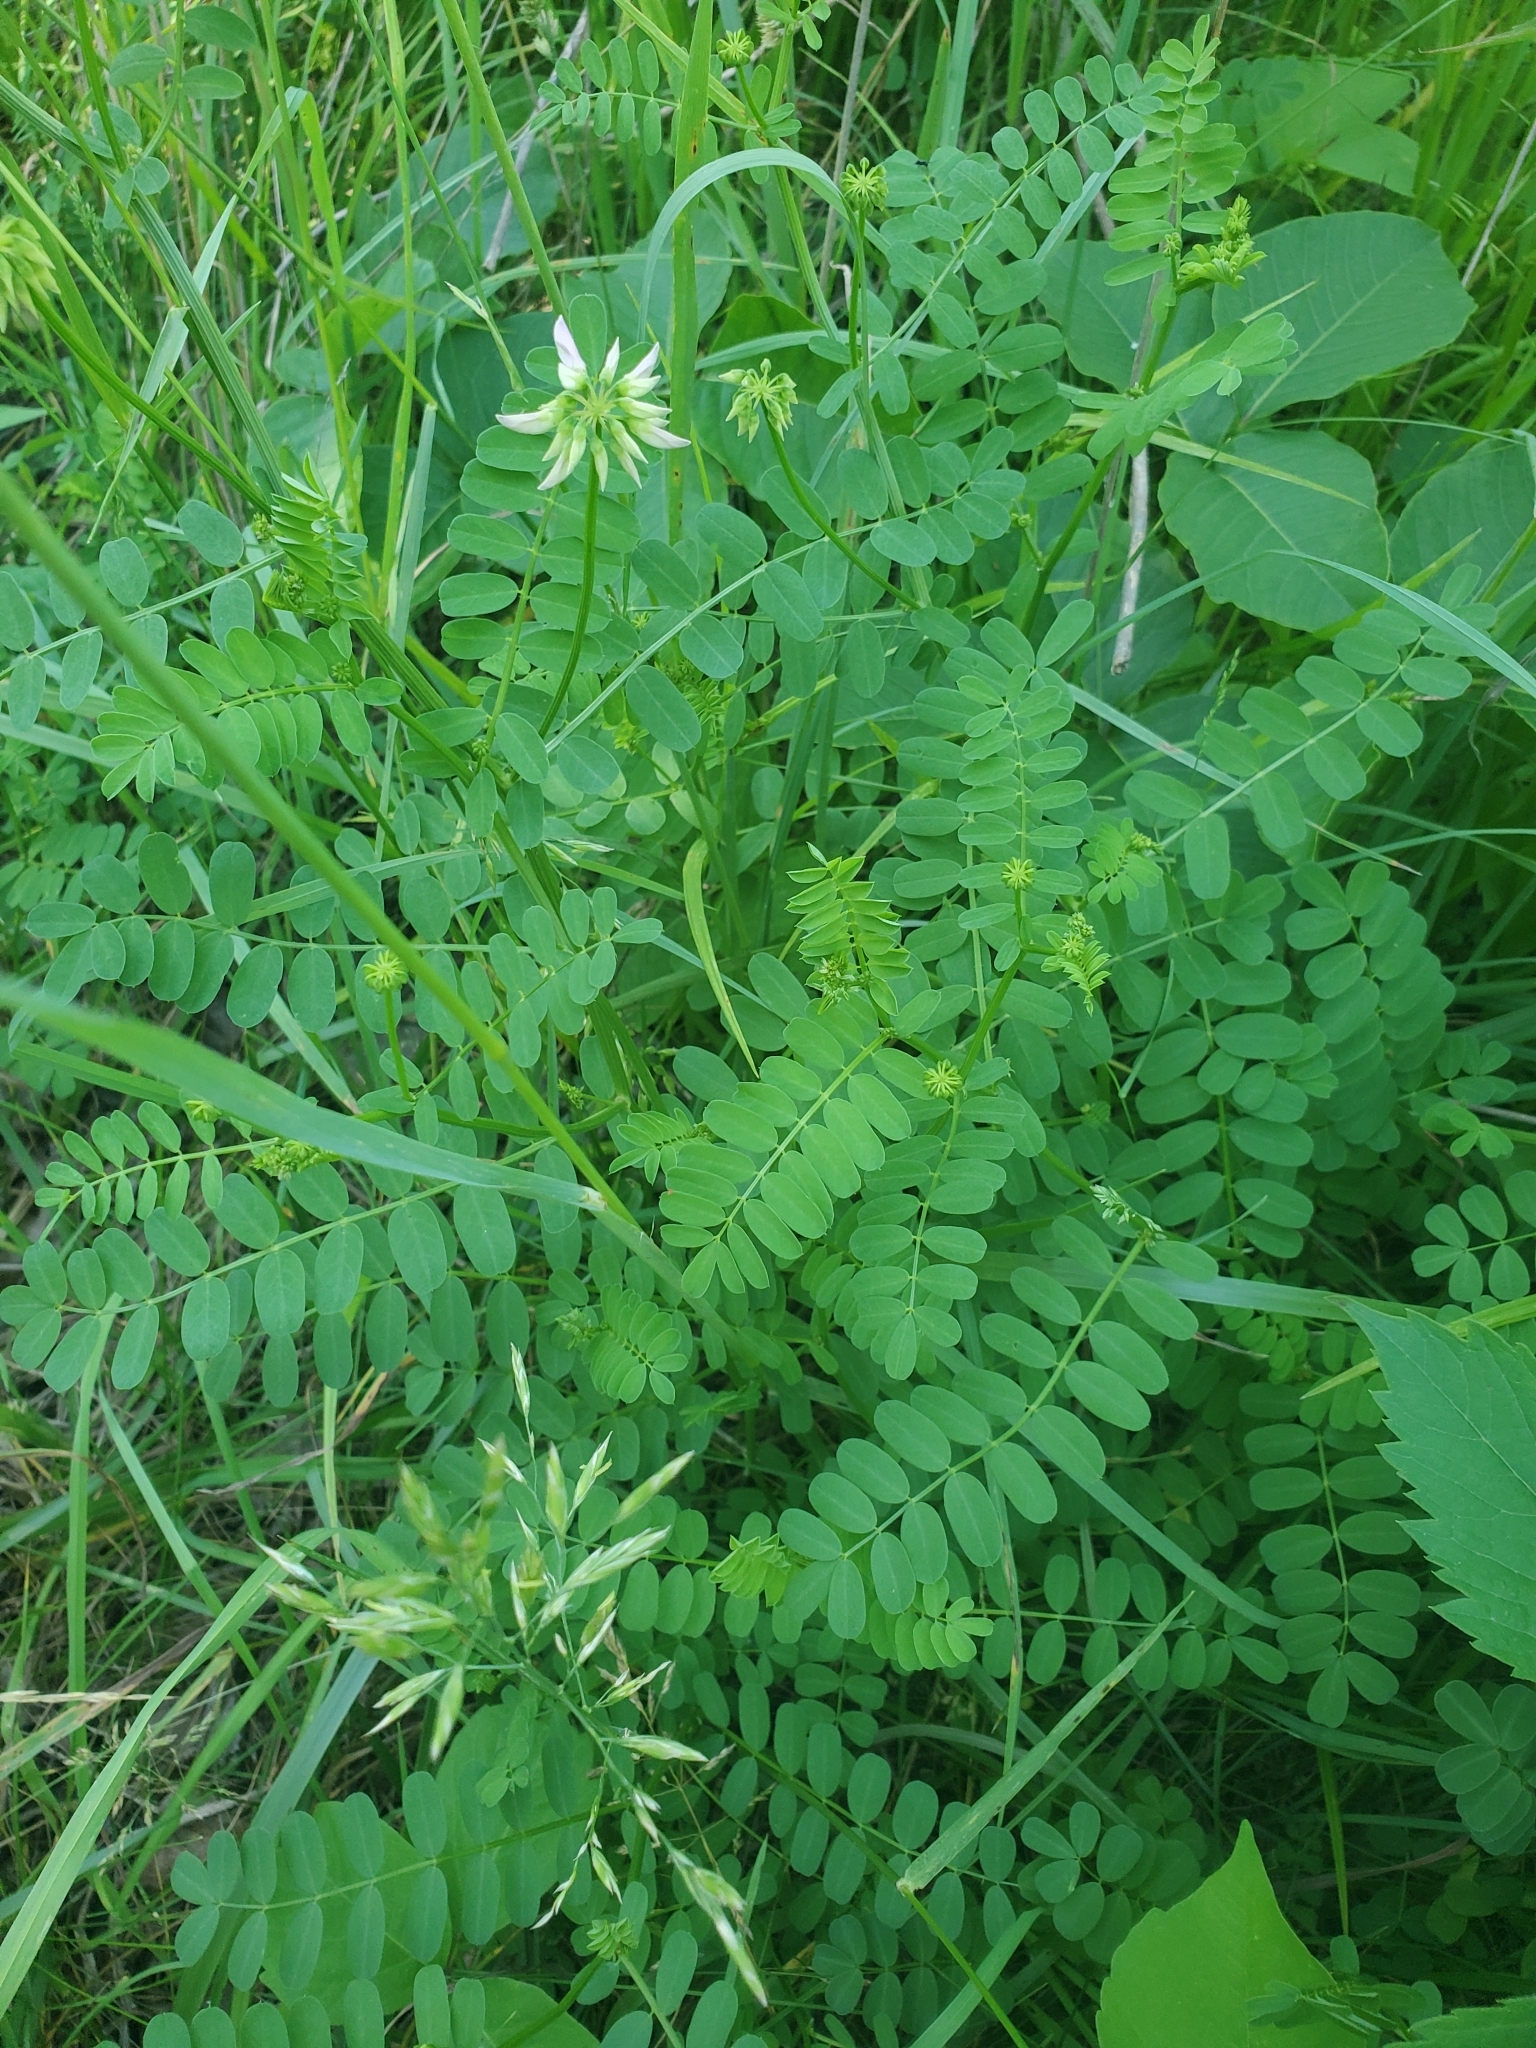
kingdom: Plantae
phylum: Tracheophyta
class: Magnoliopsida
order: Fabales
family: Fabaceae
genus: Coronilla
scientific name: Coronilla varia
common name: Crownvetch
